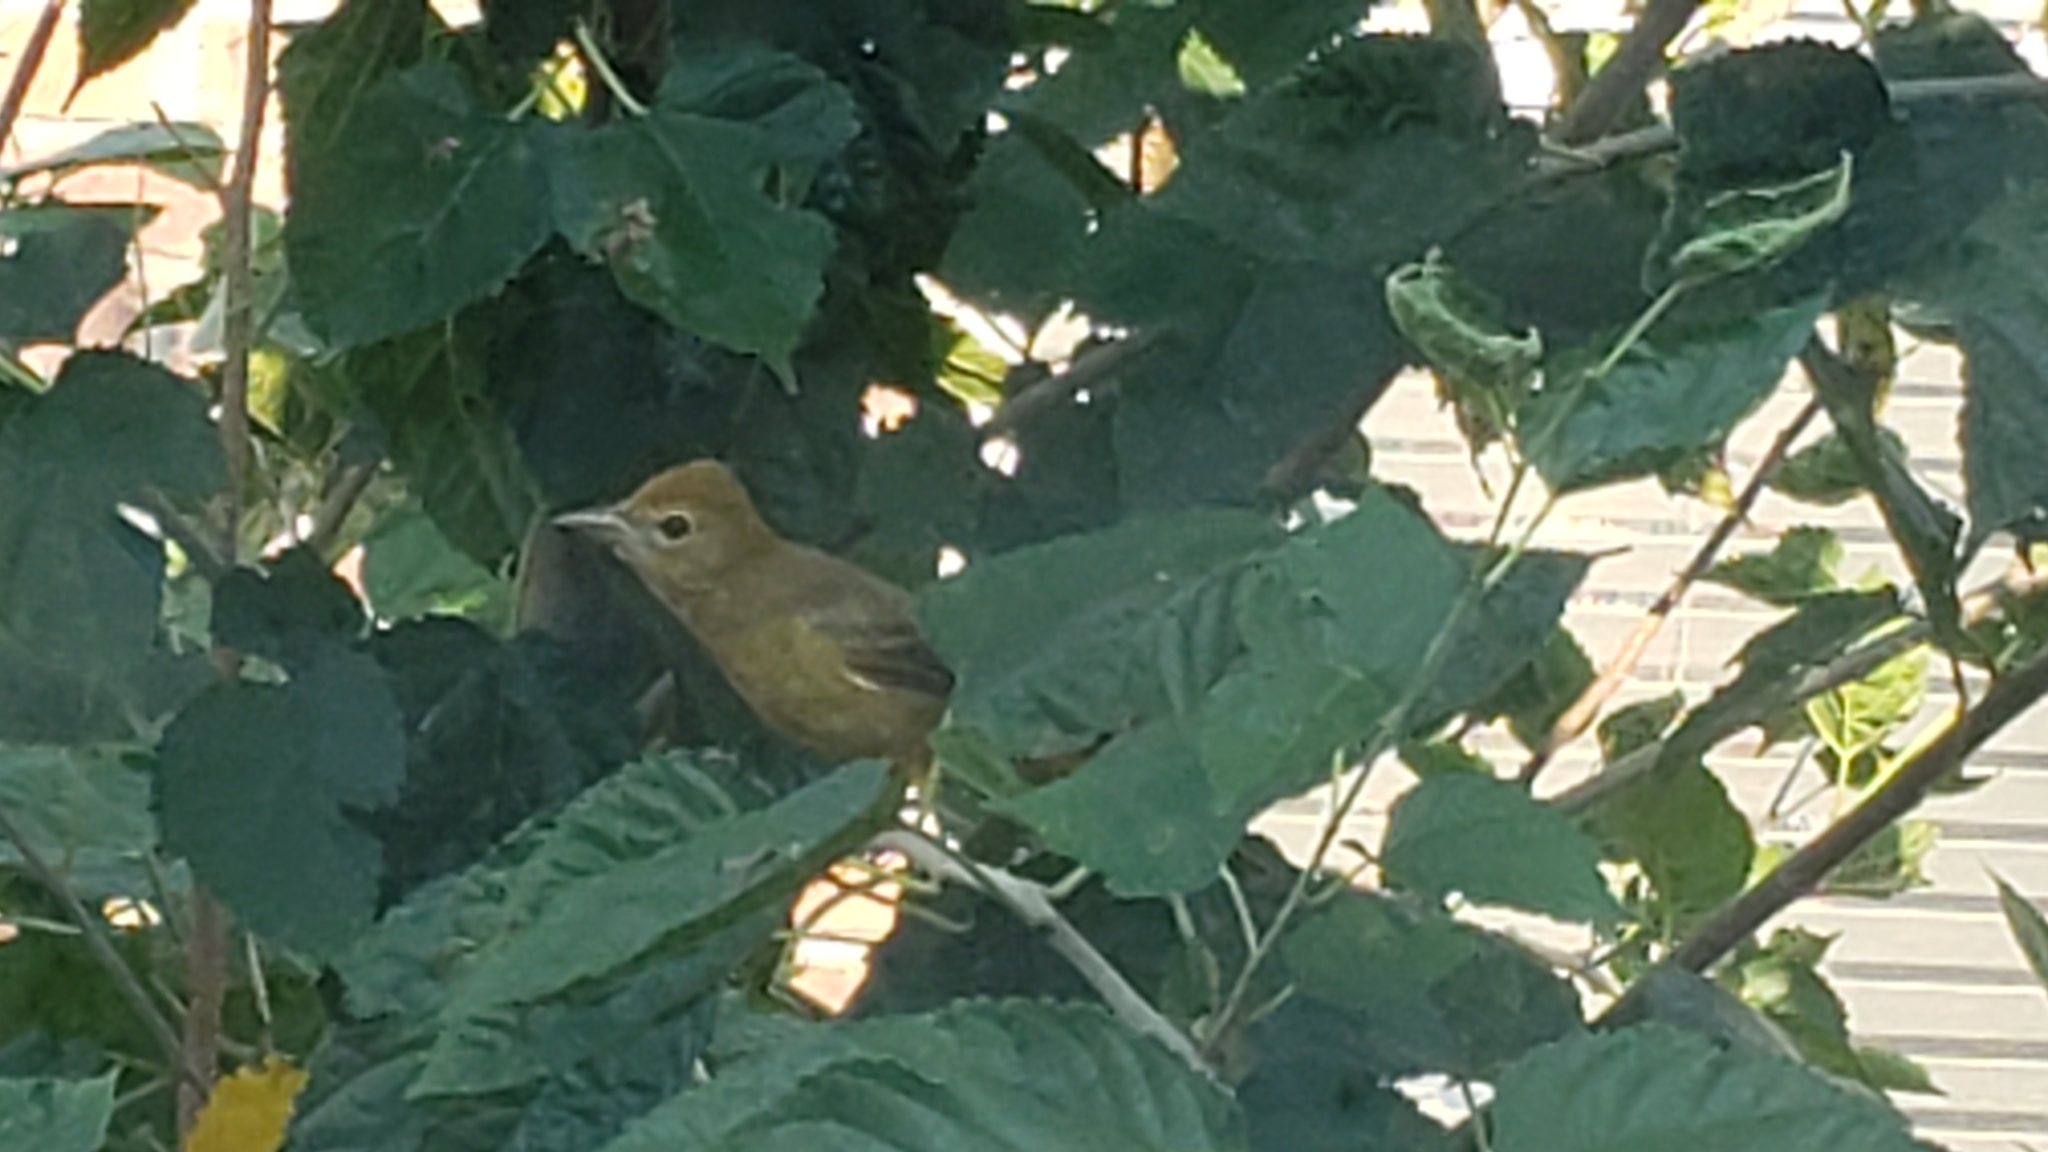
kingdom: Animalia
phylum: Chordata
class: Aves
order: Passeriformes
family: Cardinalidae
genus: Piranga
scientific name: Piranga rubra
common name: Summer tanager
